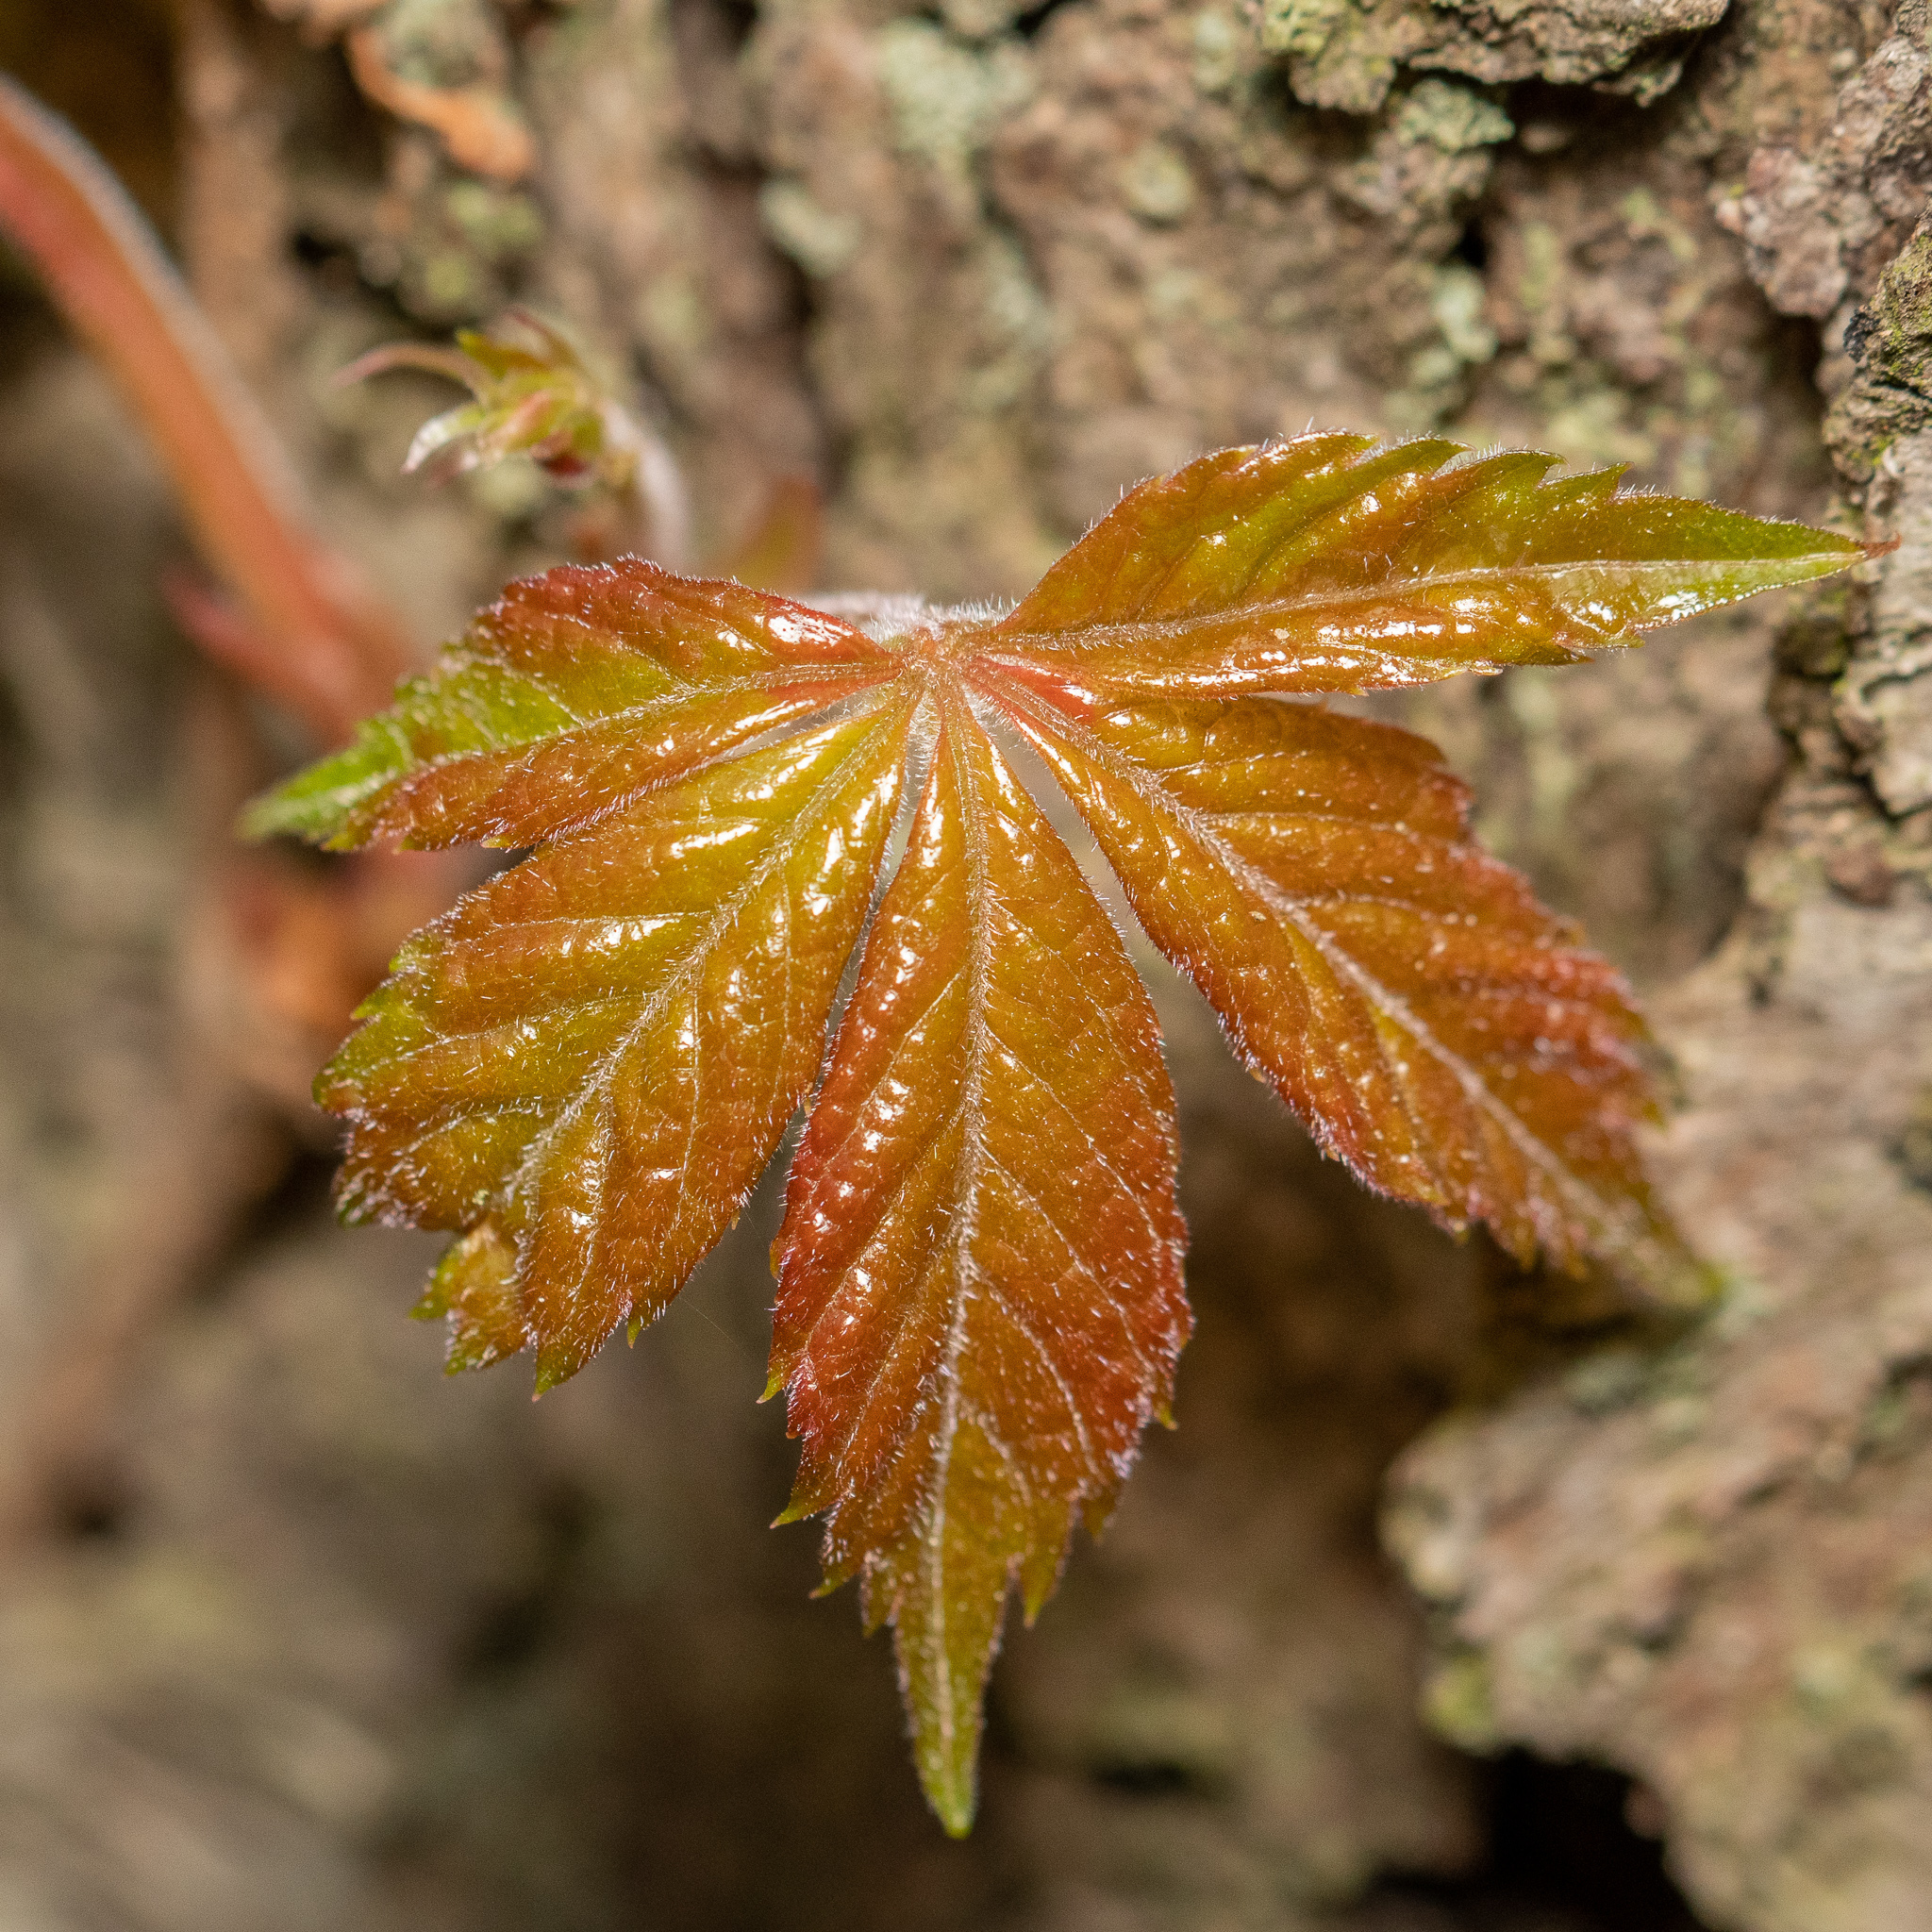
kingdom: Plantae
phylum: Tracheophyta
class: Magnoliopsida
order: Vitales
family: Vitaceae
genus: Parthenocissus
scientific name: Parthenocissus quinquefolia
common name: Virginia-creeper
